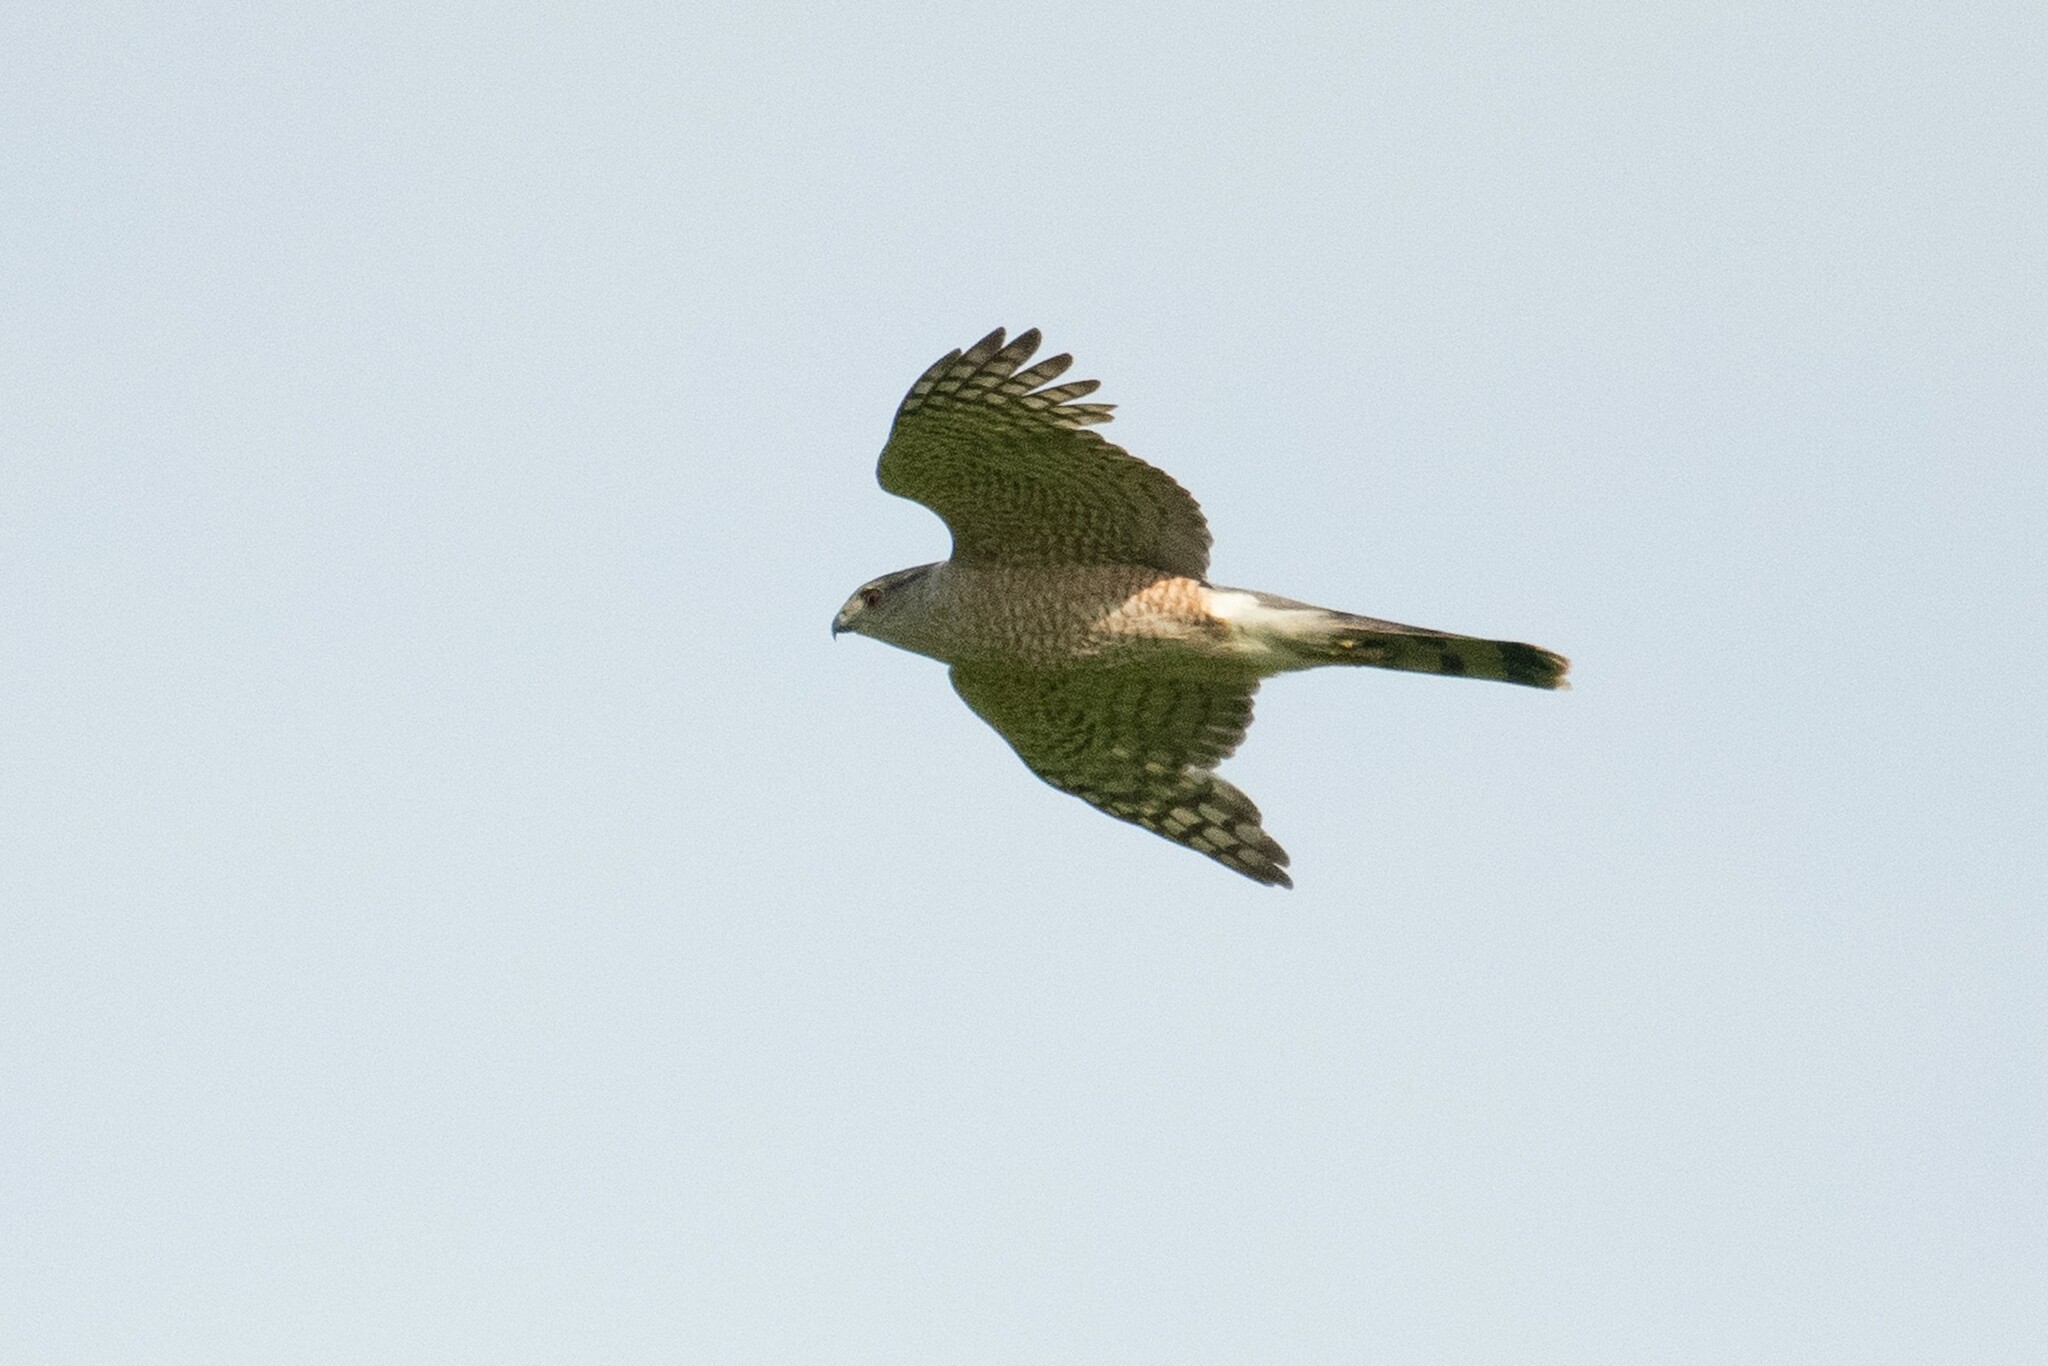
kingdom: Animalia
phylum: Chordata
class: Aves
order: Accipitriformes
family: Accipitridae
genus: Accipiter
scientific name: Accipiter cooperii
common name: Cooper's hawk
